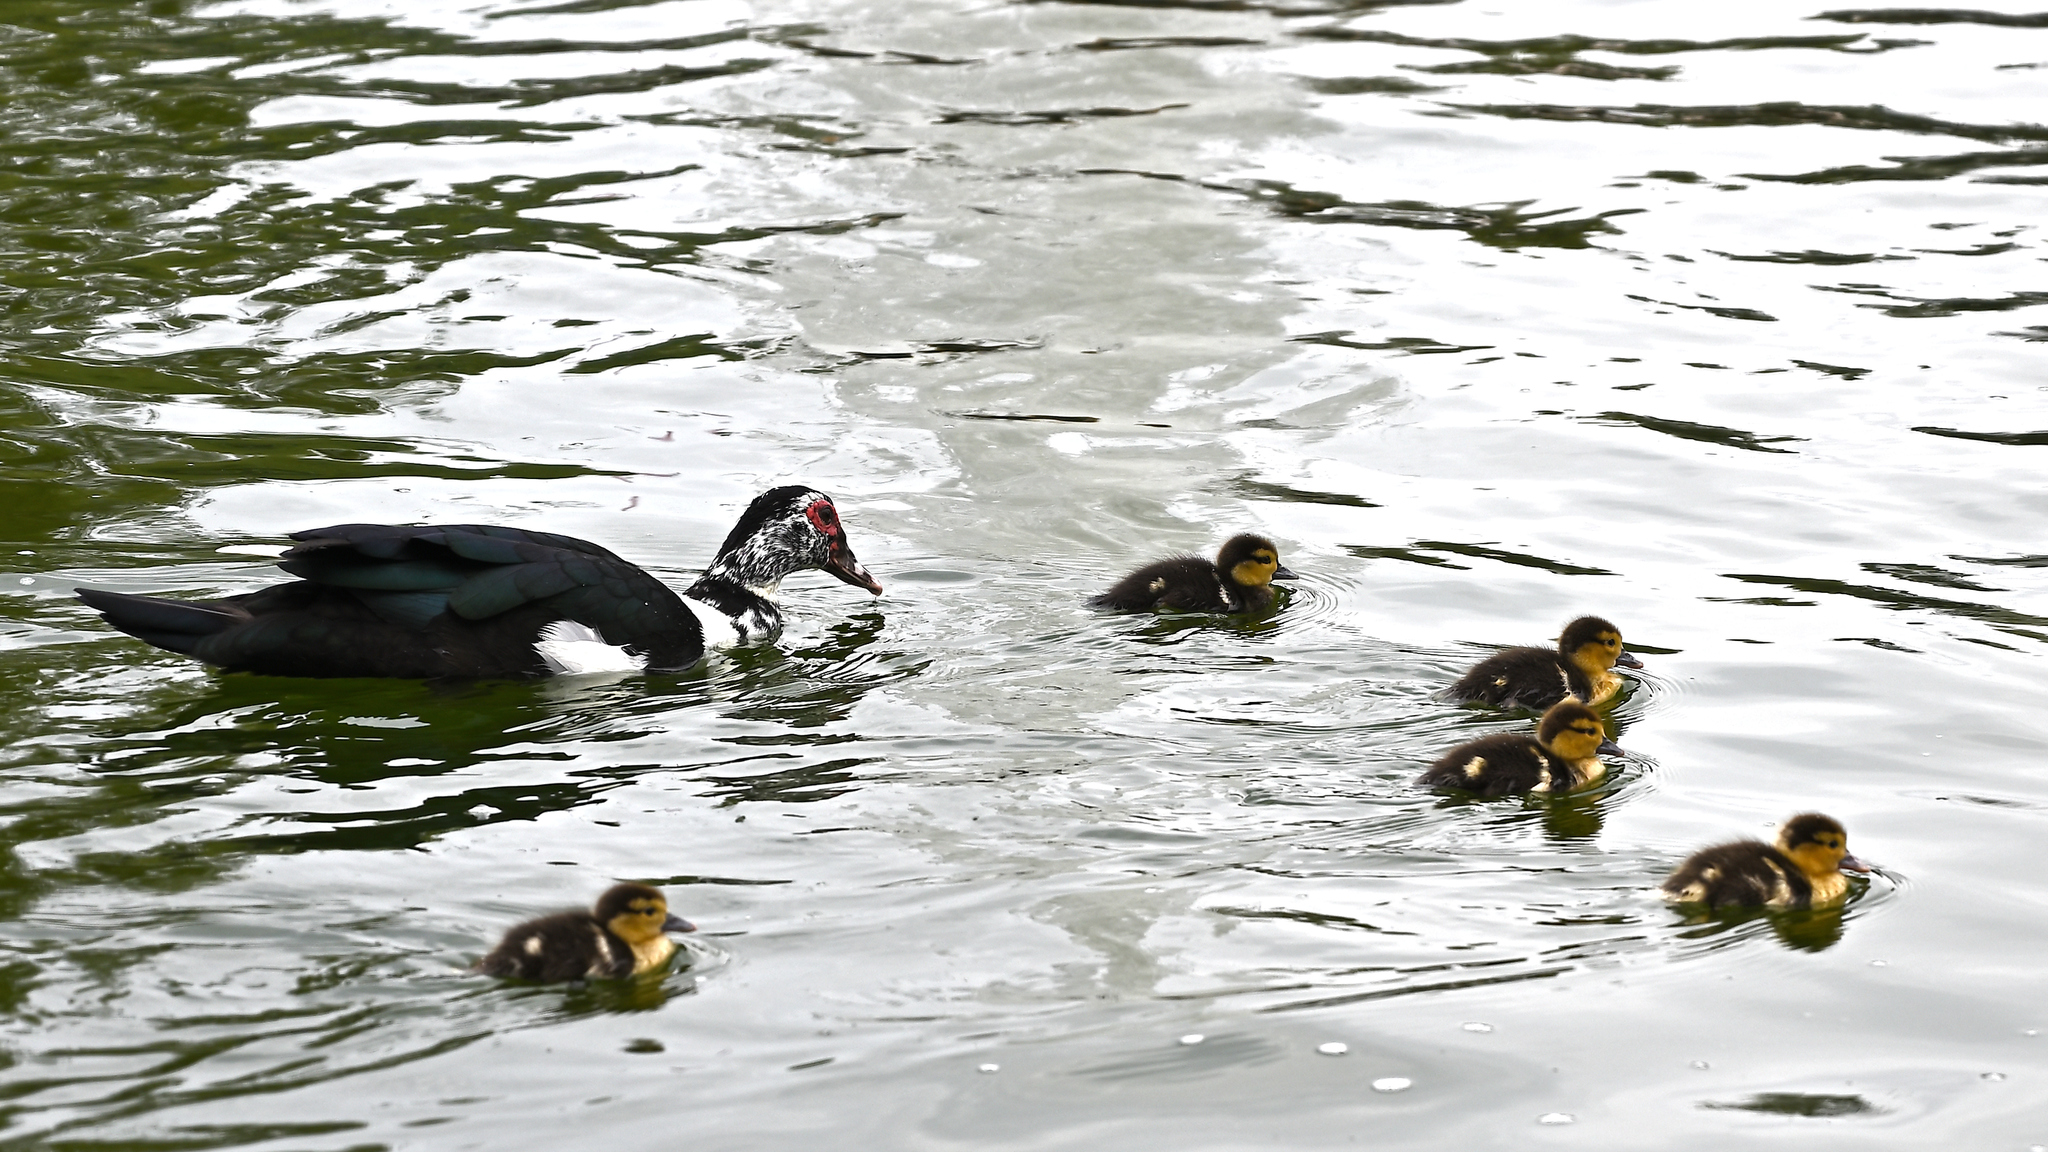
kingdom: Animalia
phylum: Chordata
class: Aves
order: Anseriformes
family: Anatidae
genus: Cairina
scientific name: Cairina moschata
